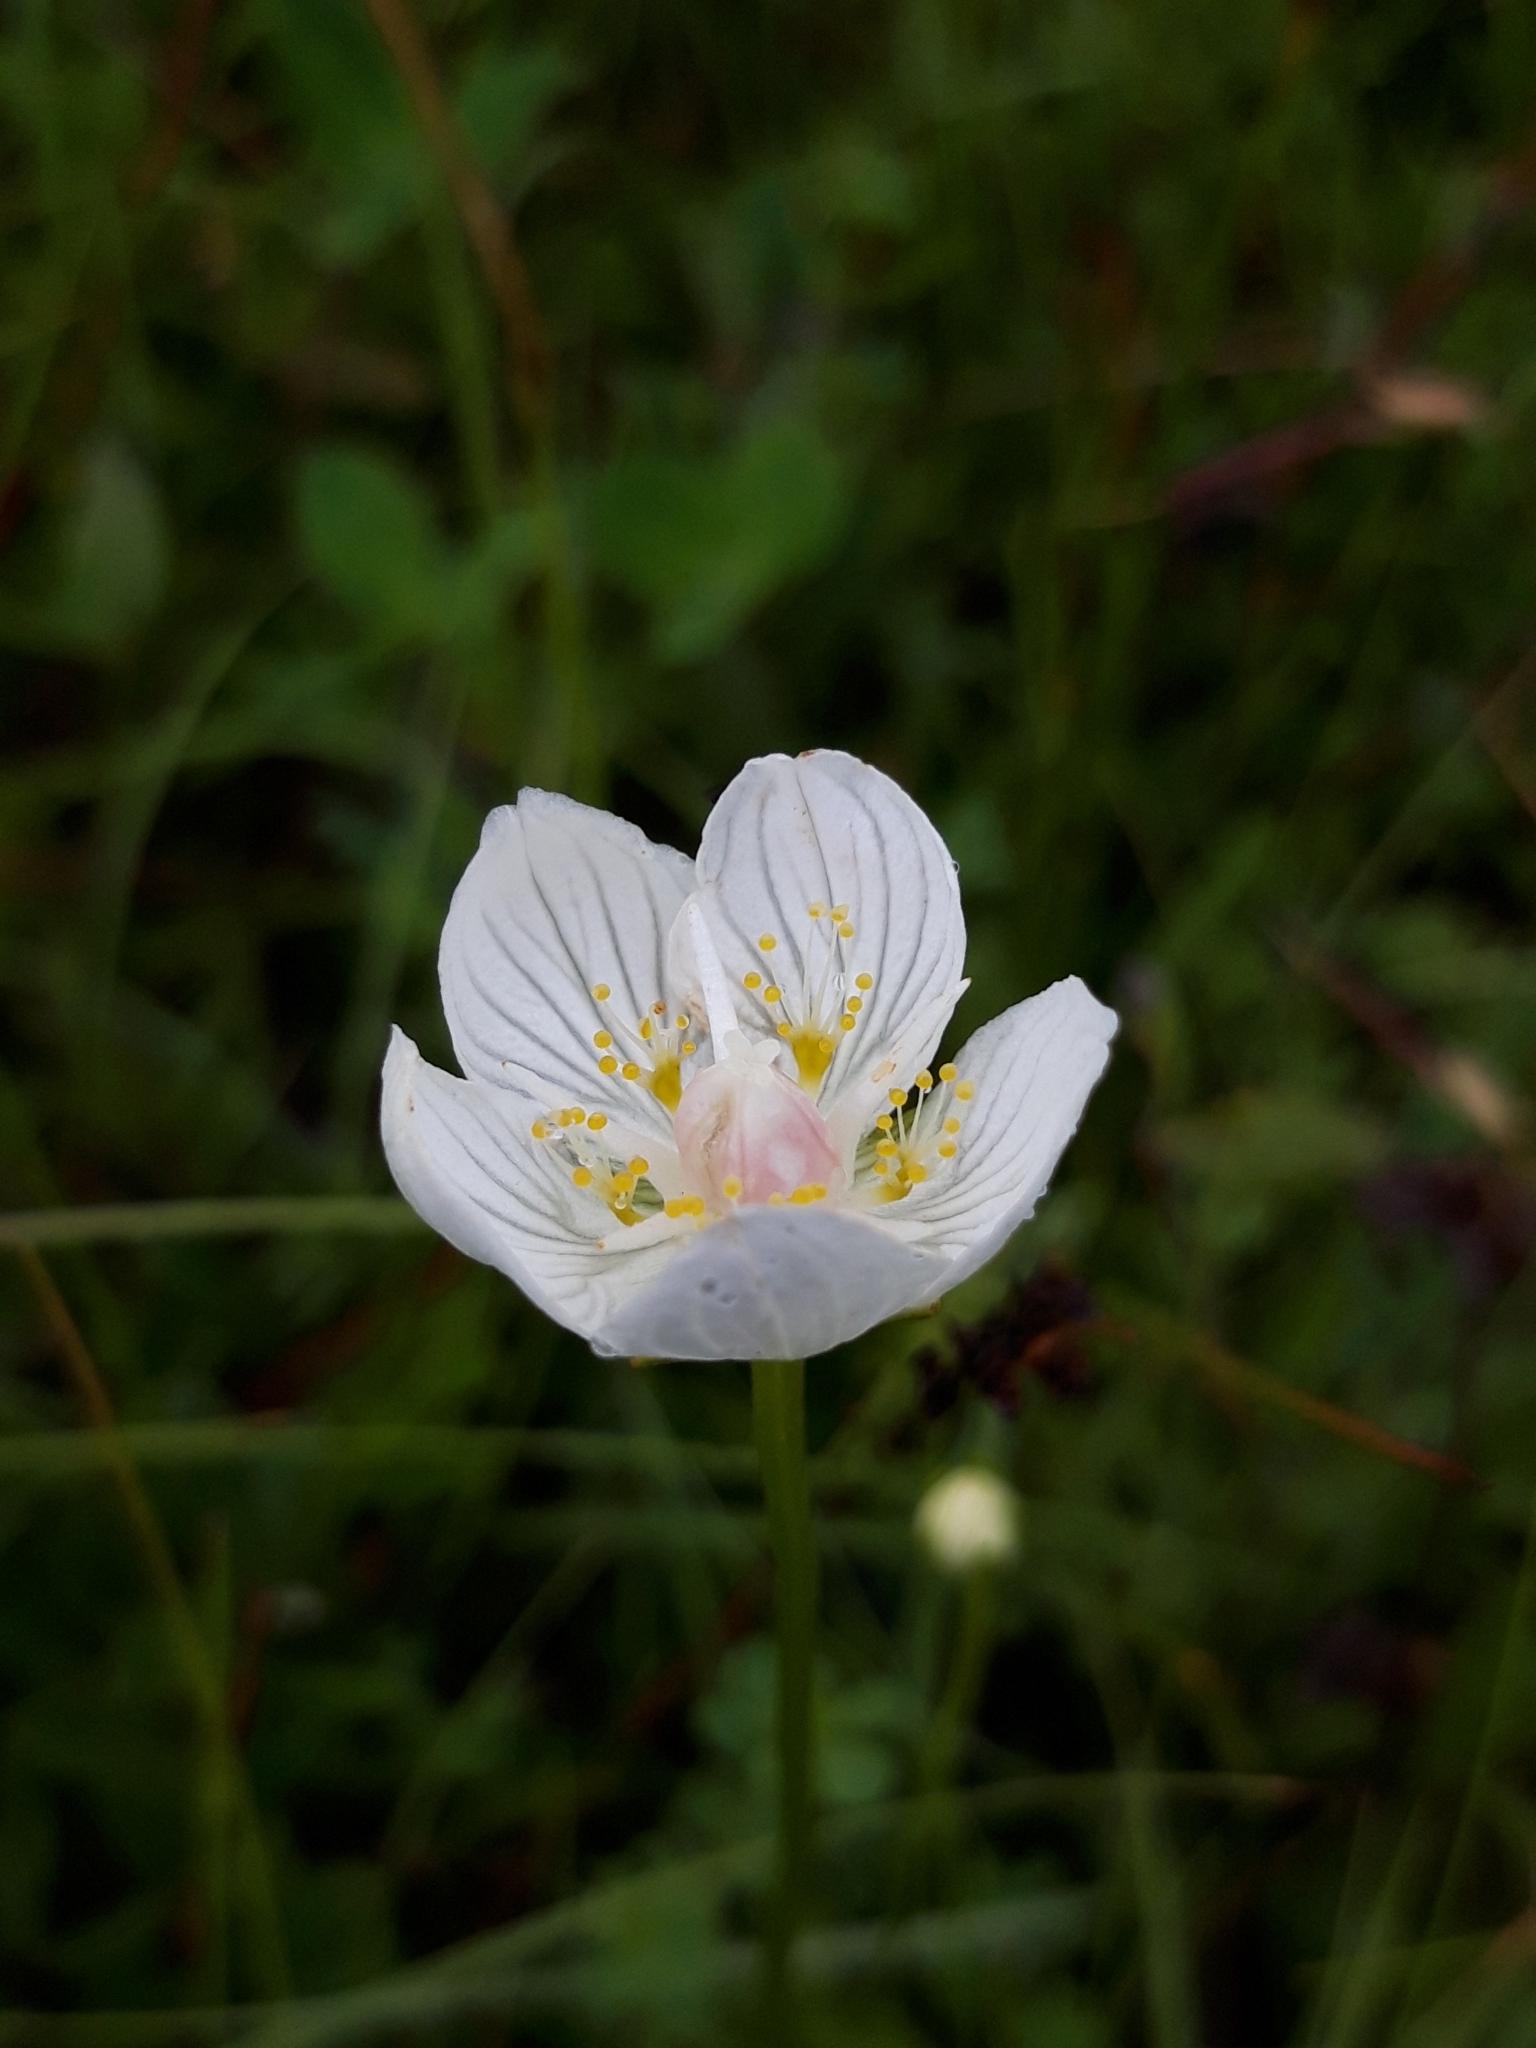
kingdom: Plantae
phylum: Tracheophyta
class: Magnoliopsida
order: Celastrales
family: Parnassiaceae
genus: Parnassia
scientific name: Parnassia palustris
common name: Grass-of-parnassus
